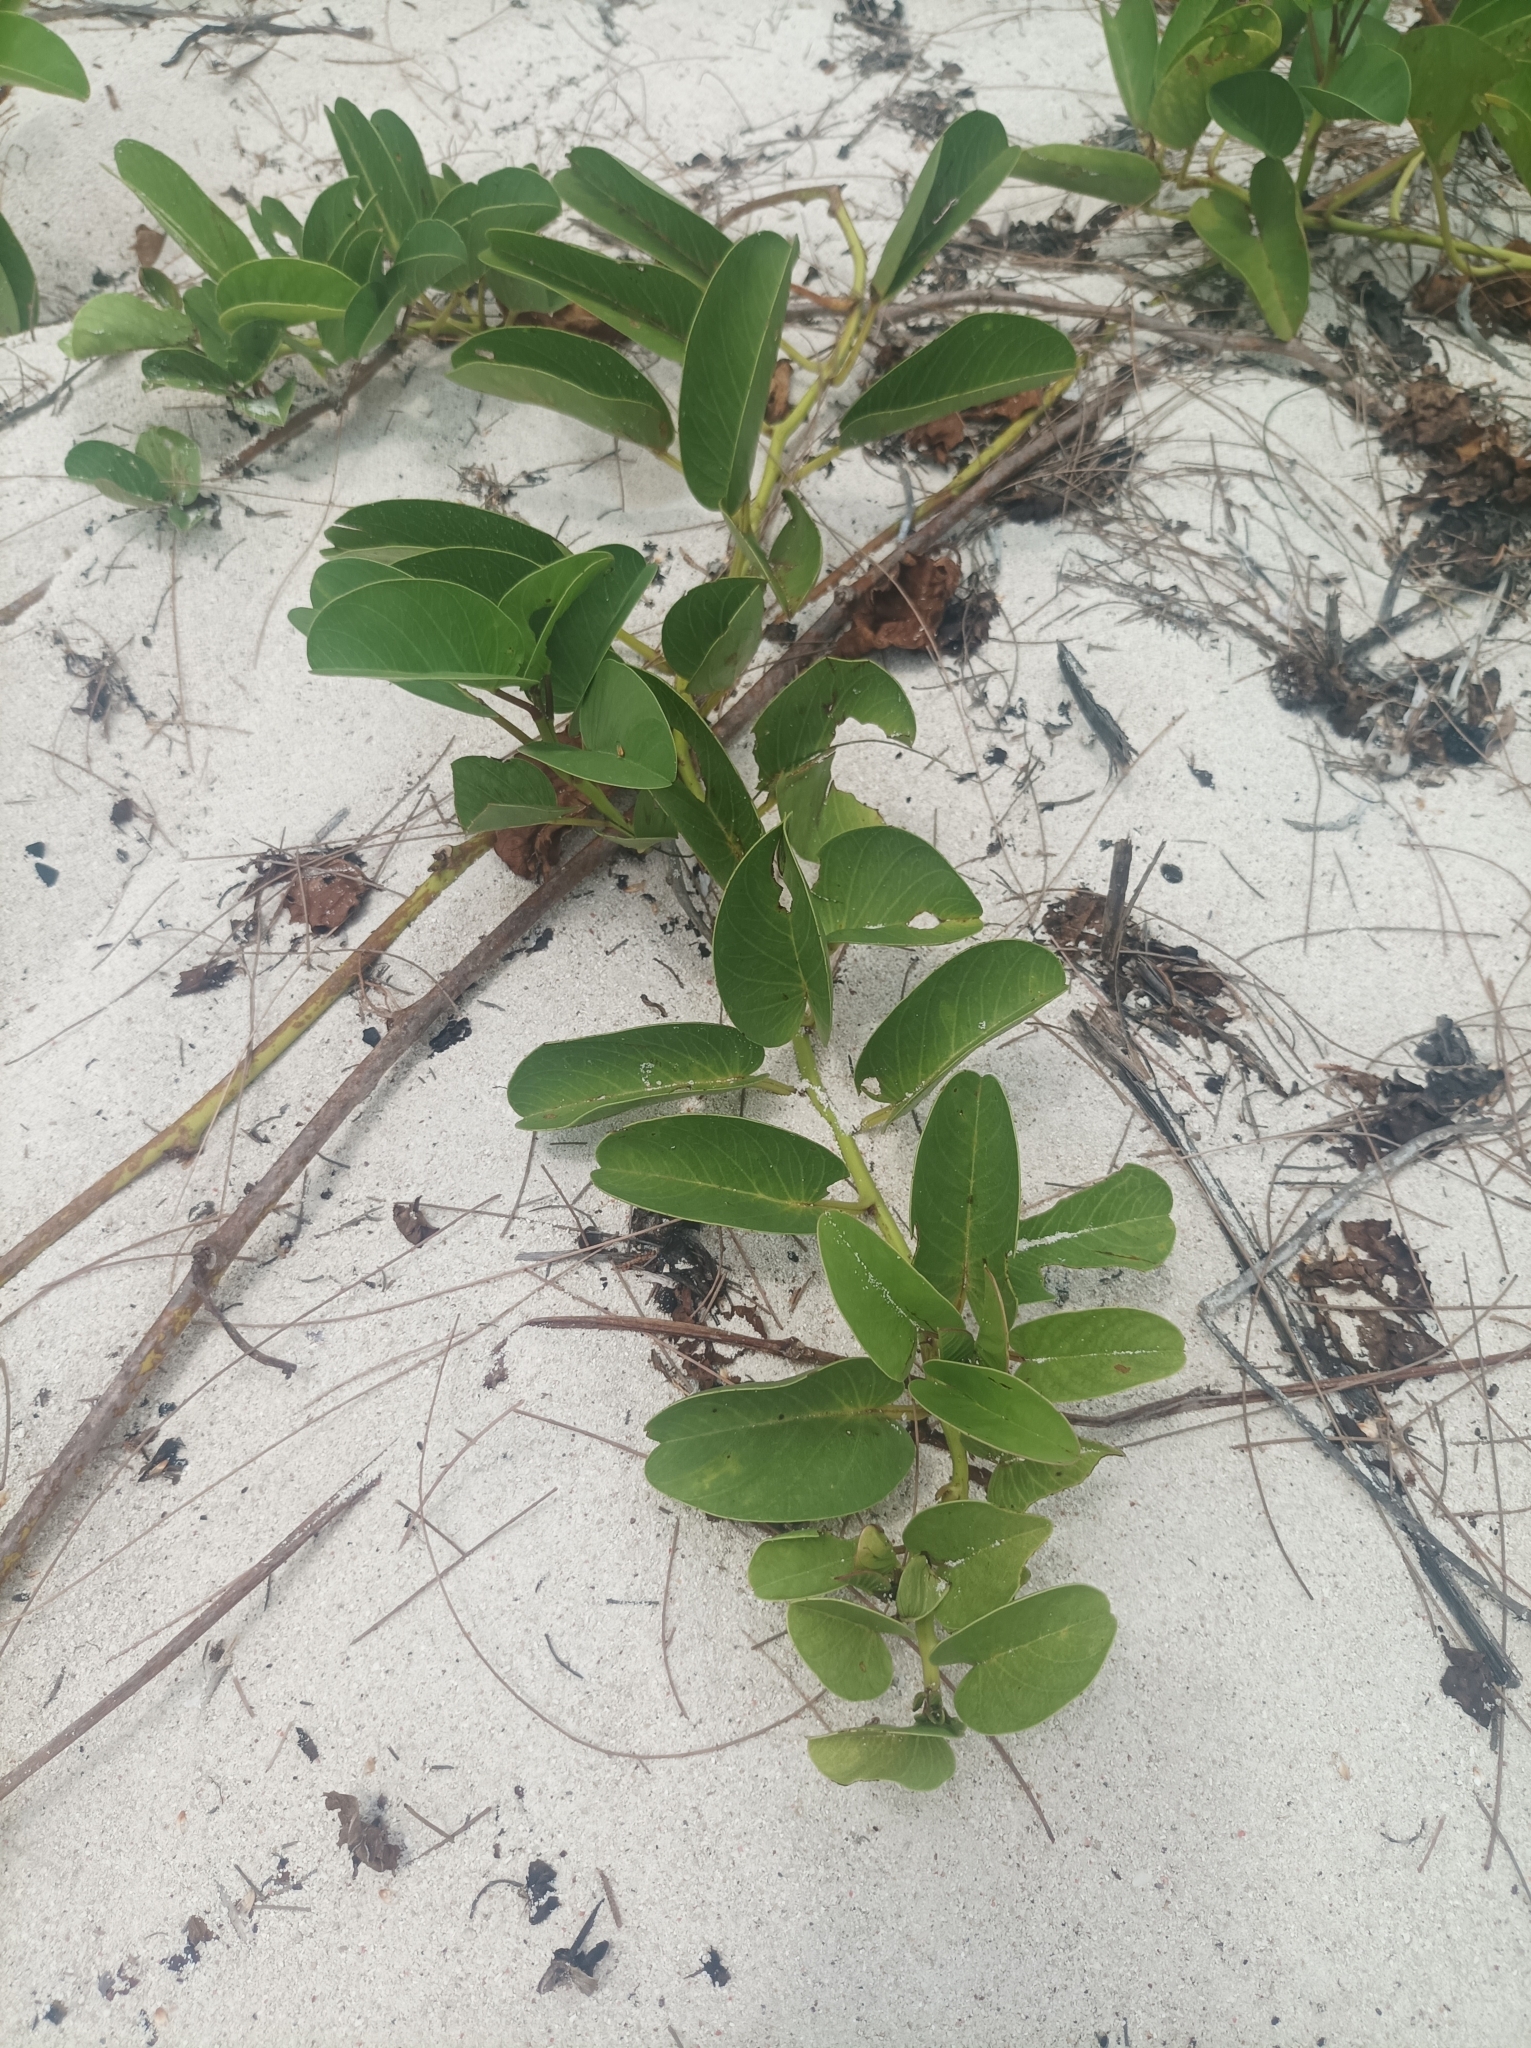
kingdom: Plantae
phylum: Tracheophyta
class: Magnoliopsida
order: Solanales
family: Convolvulaceae
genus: Ipomoea
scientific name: Ipomoea pes-caprae
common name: Beach morning glory
